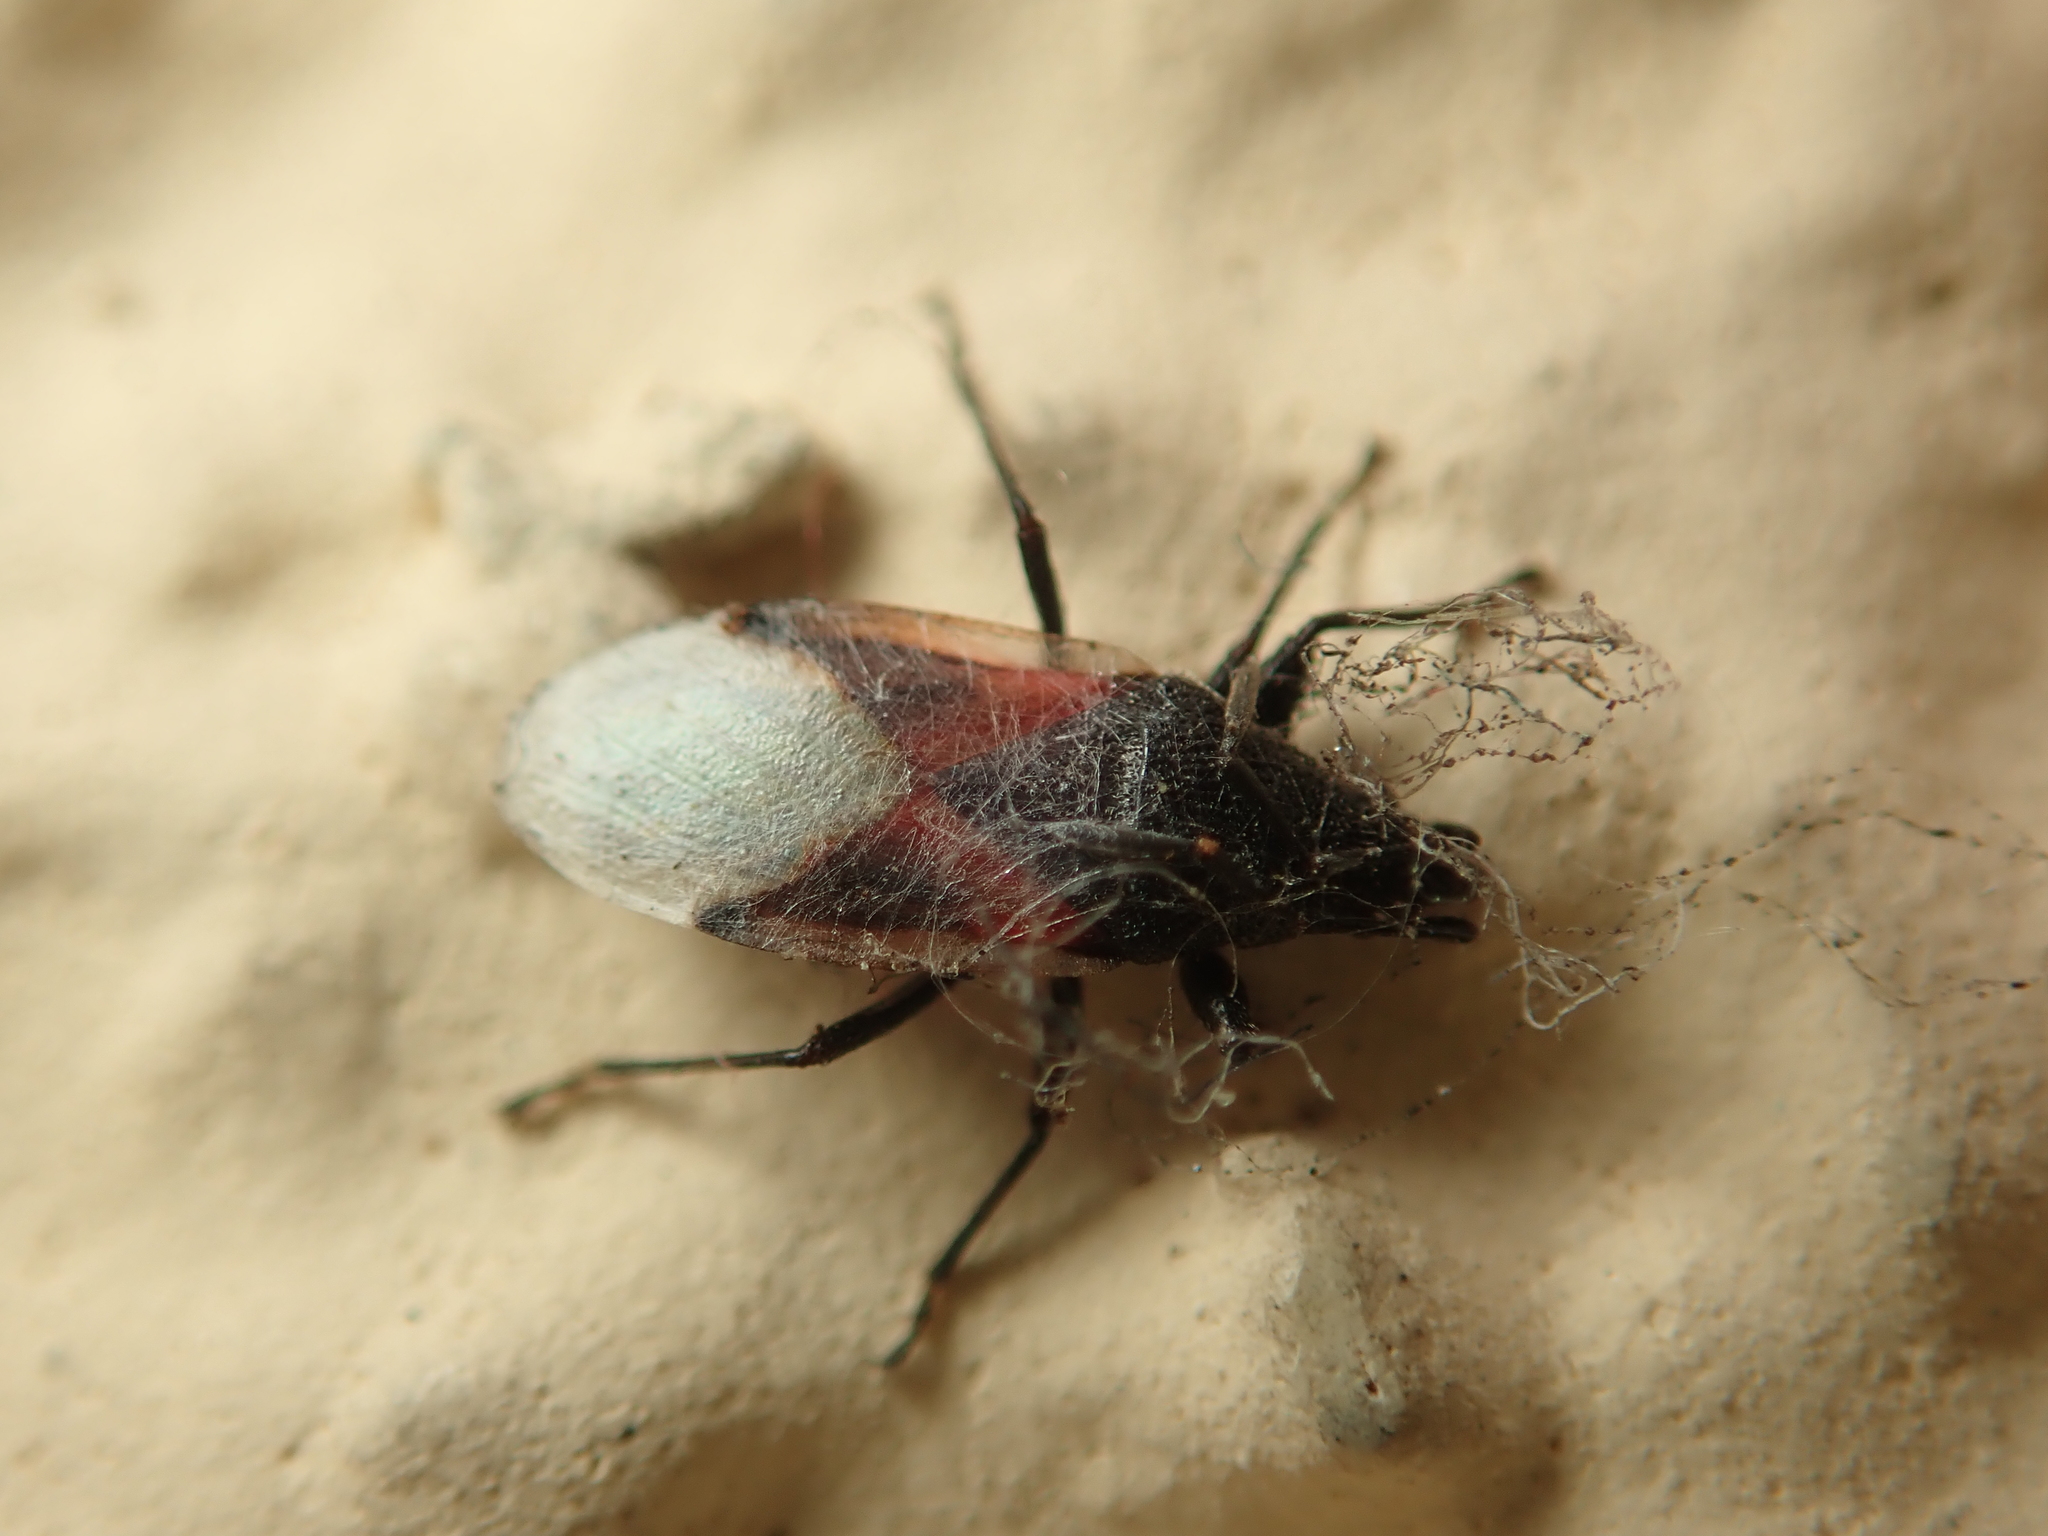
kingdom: Animalia
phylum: Arthropoda
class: Insecta
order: Hemiptera
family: Oxycarenidae
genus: Oxycarenus
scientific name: Oxycarenus lavaterae
